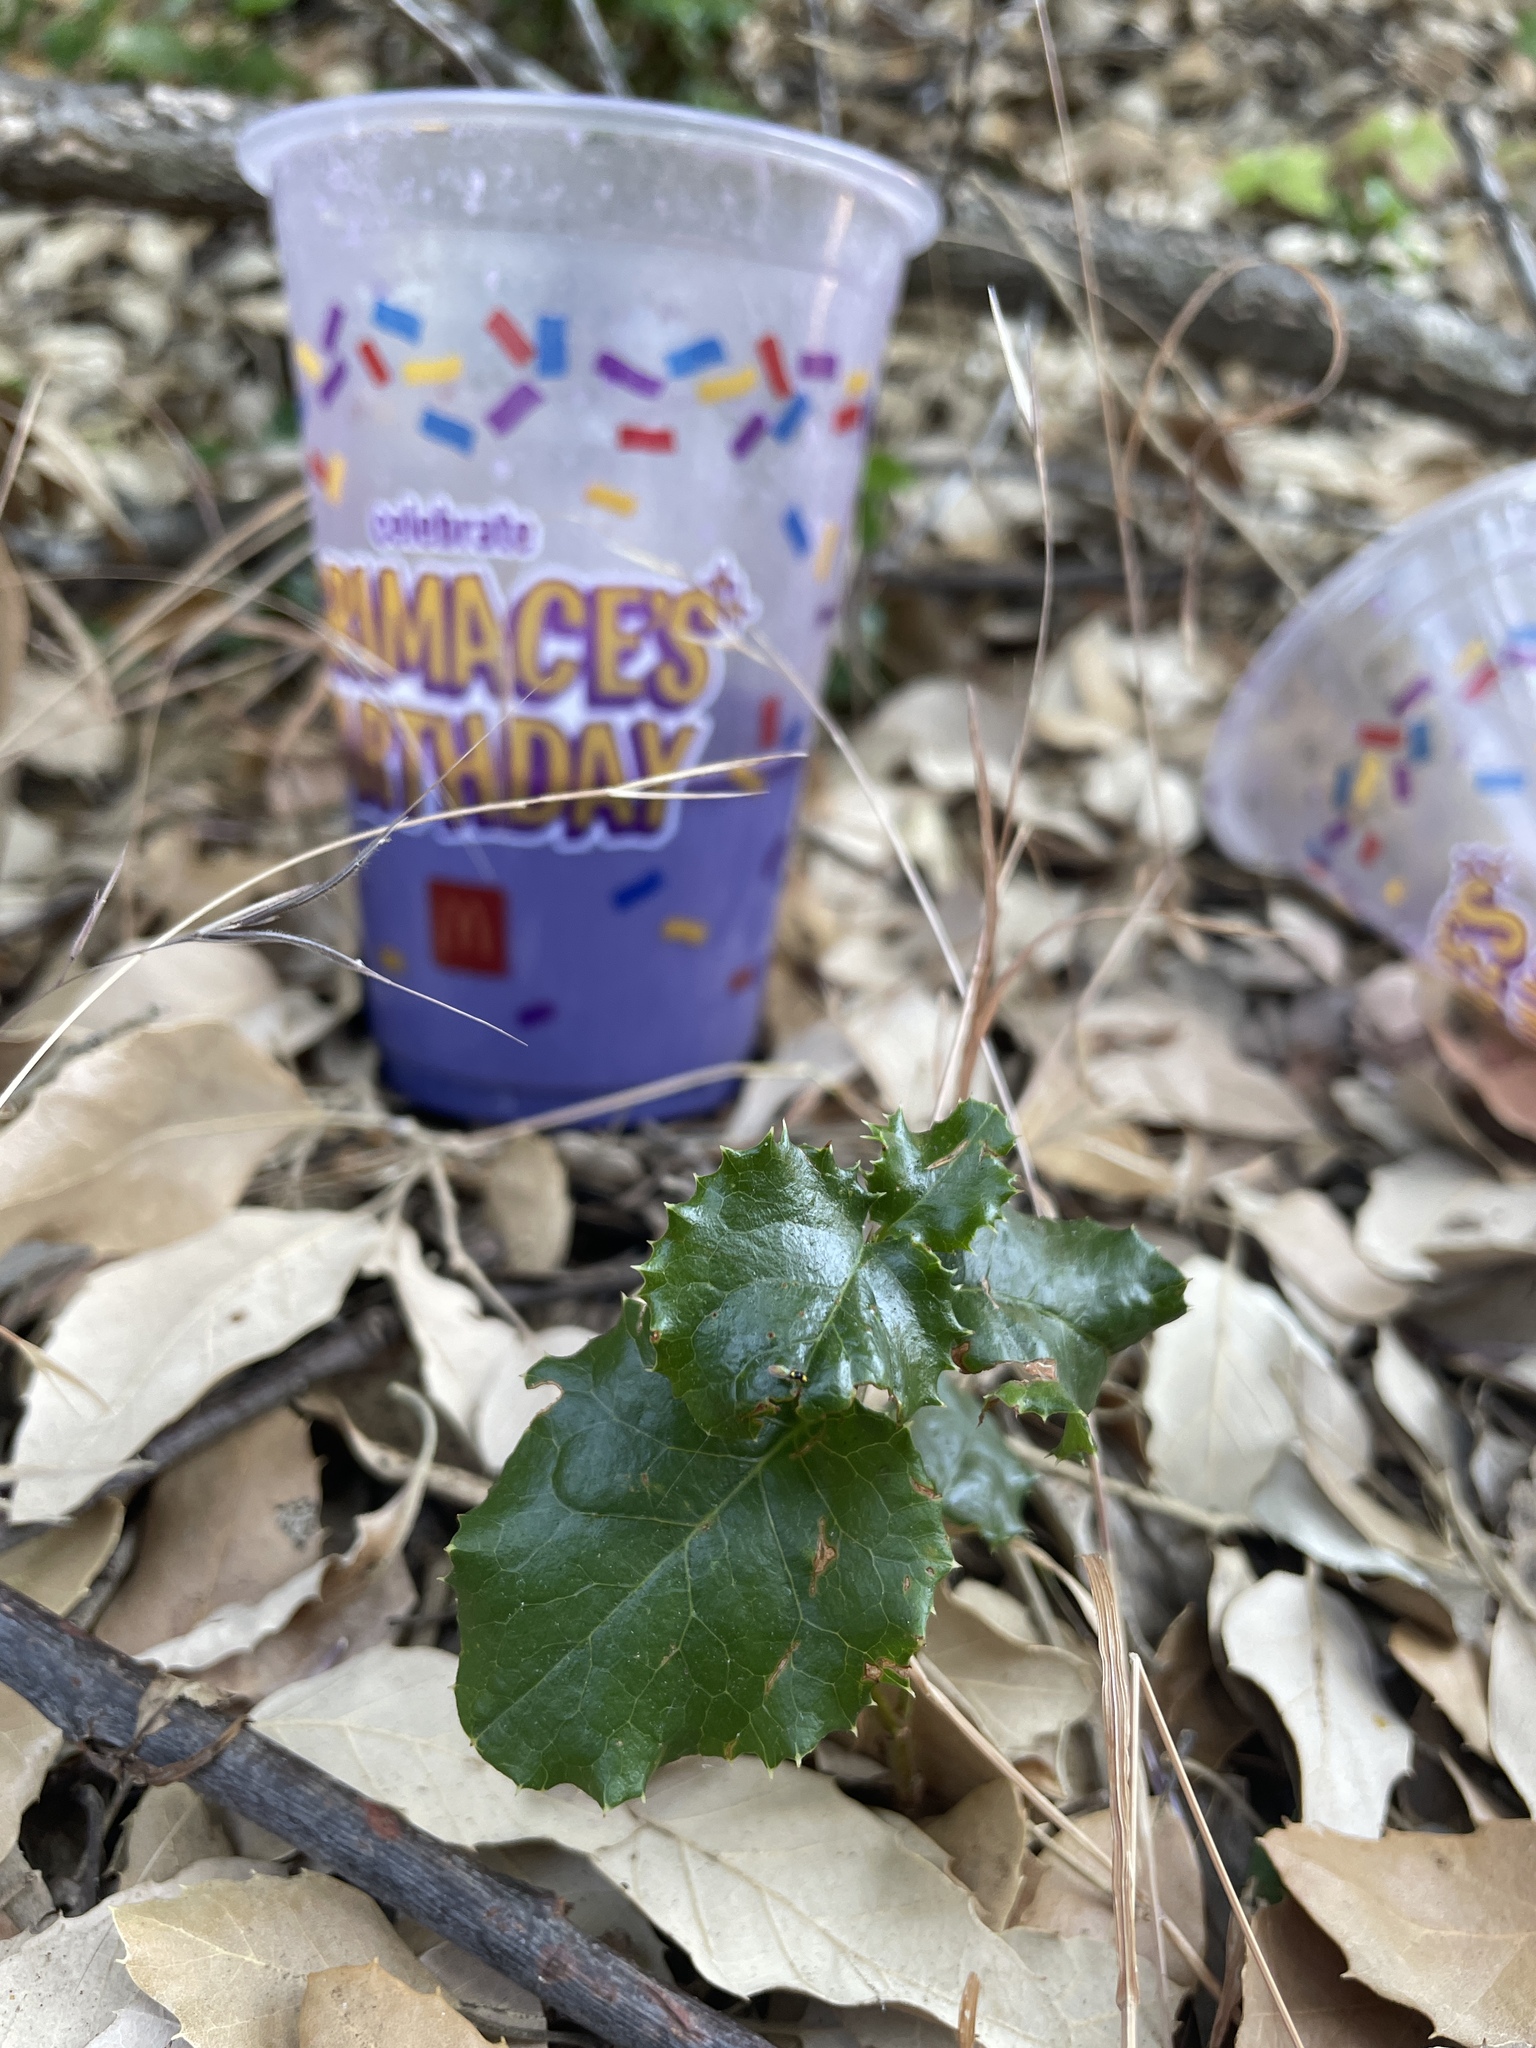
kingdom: Plantae
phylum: Tracheophyta
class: Magnoliopsida
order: Fagales
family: Fagaceae
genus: Quercus
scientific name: Quercus agrifolia
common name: California live oak
